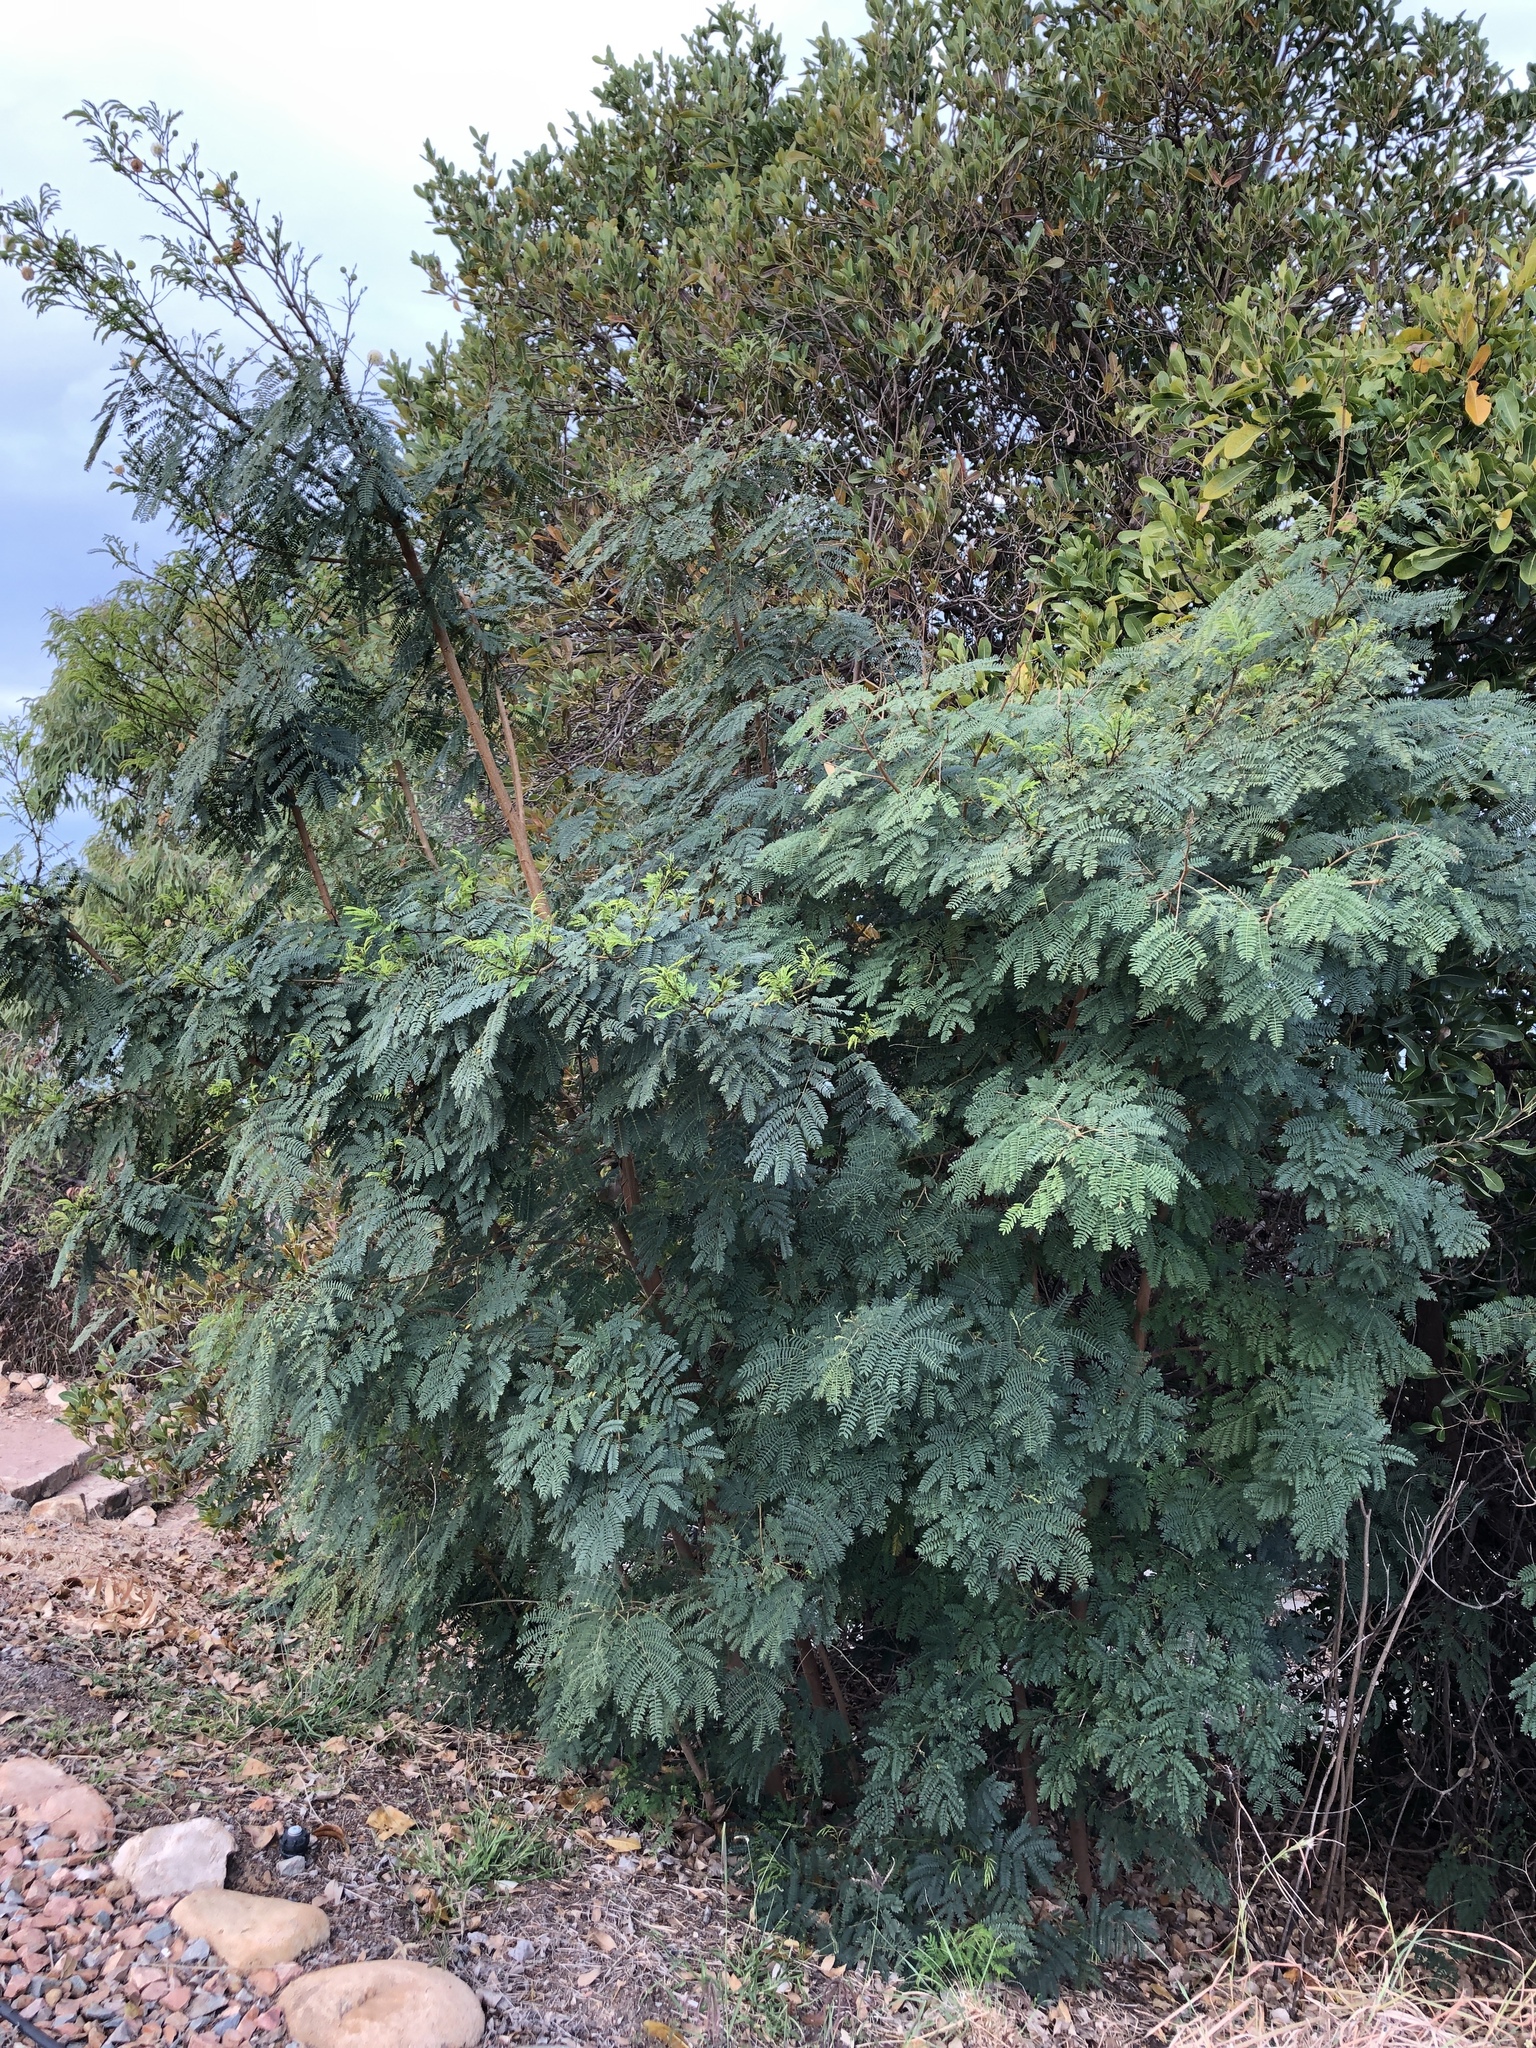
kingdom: Plantae
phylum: Tracheophyta
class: Magnoliopsida
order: Fabales
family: Fabaceae
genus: Leucaena
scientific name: Leucaena leucocephala
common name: White leadtree
